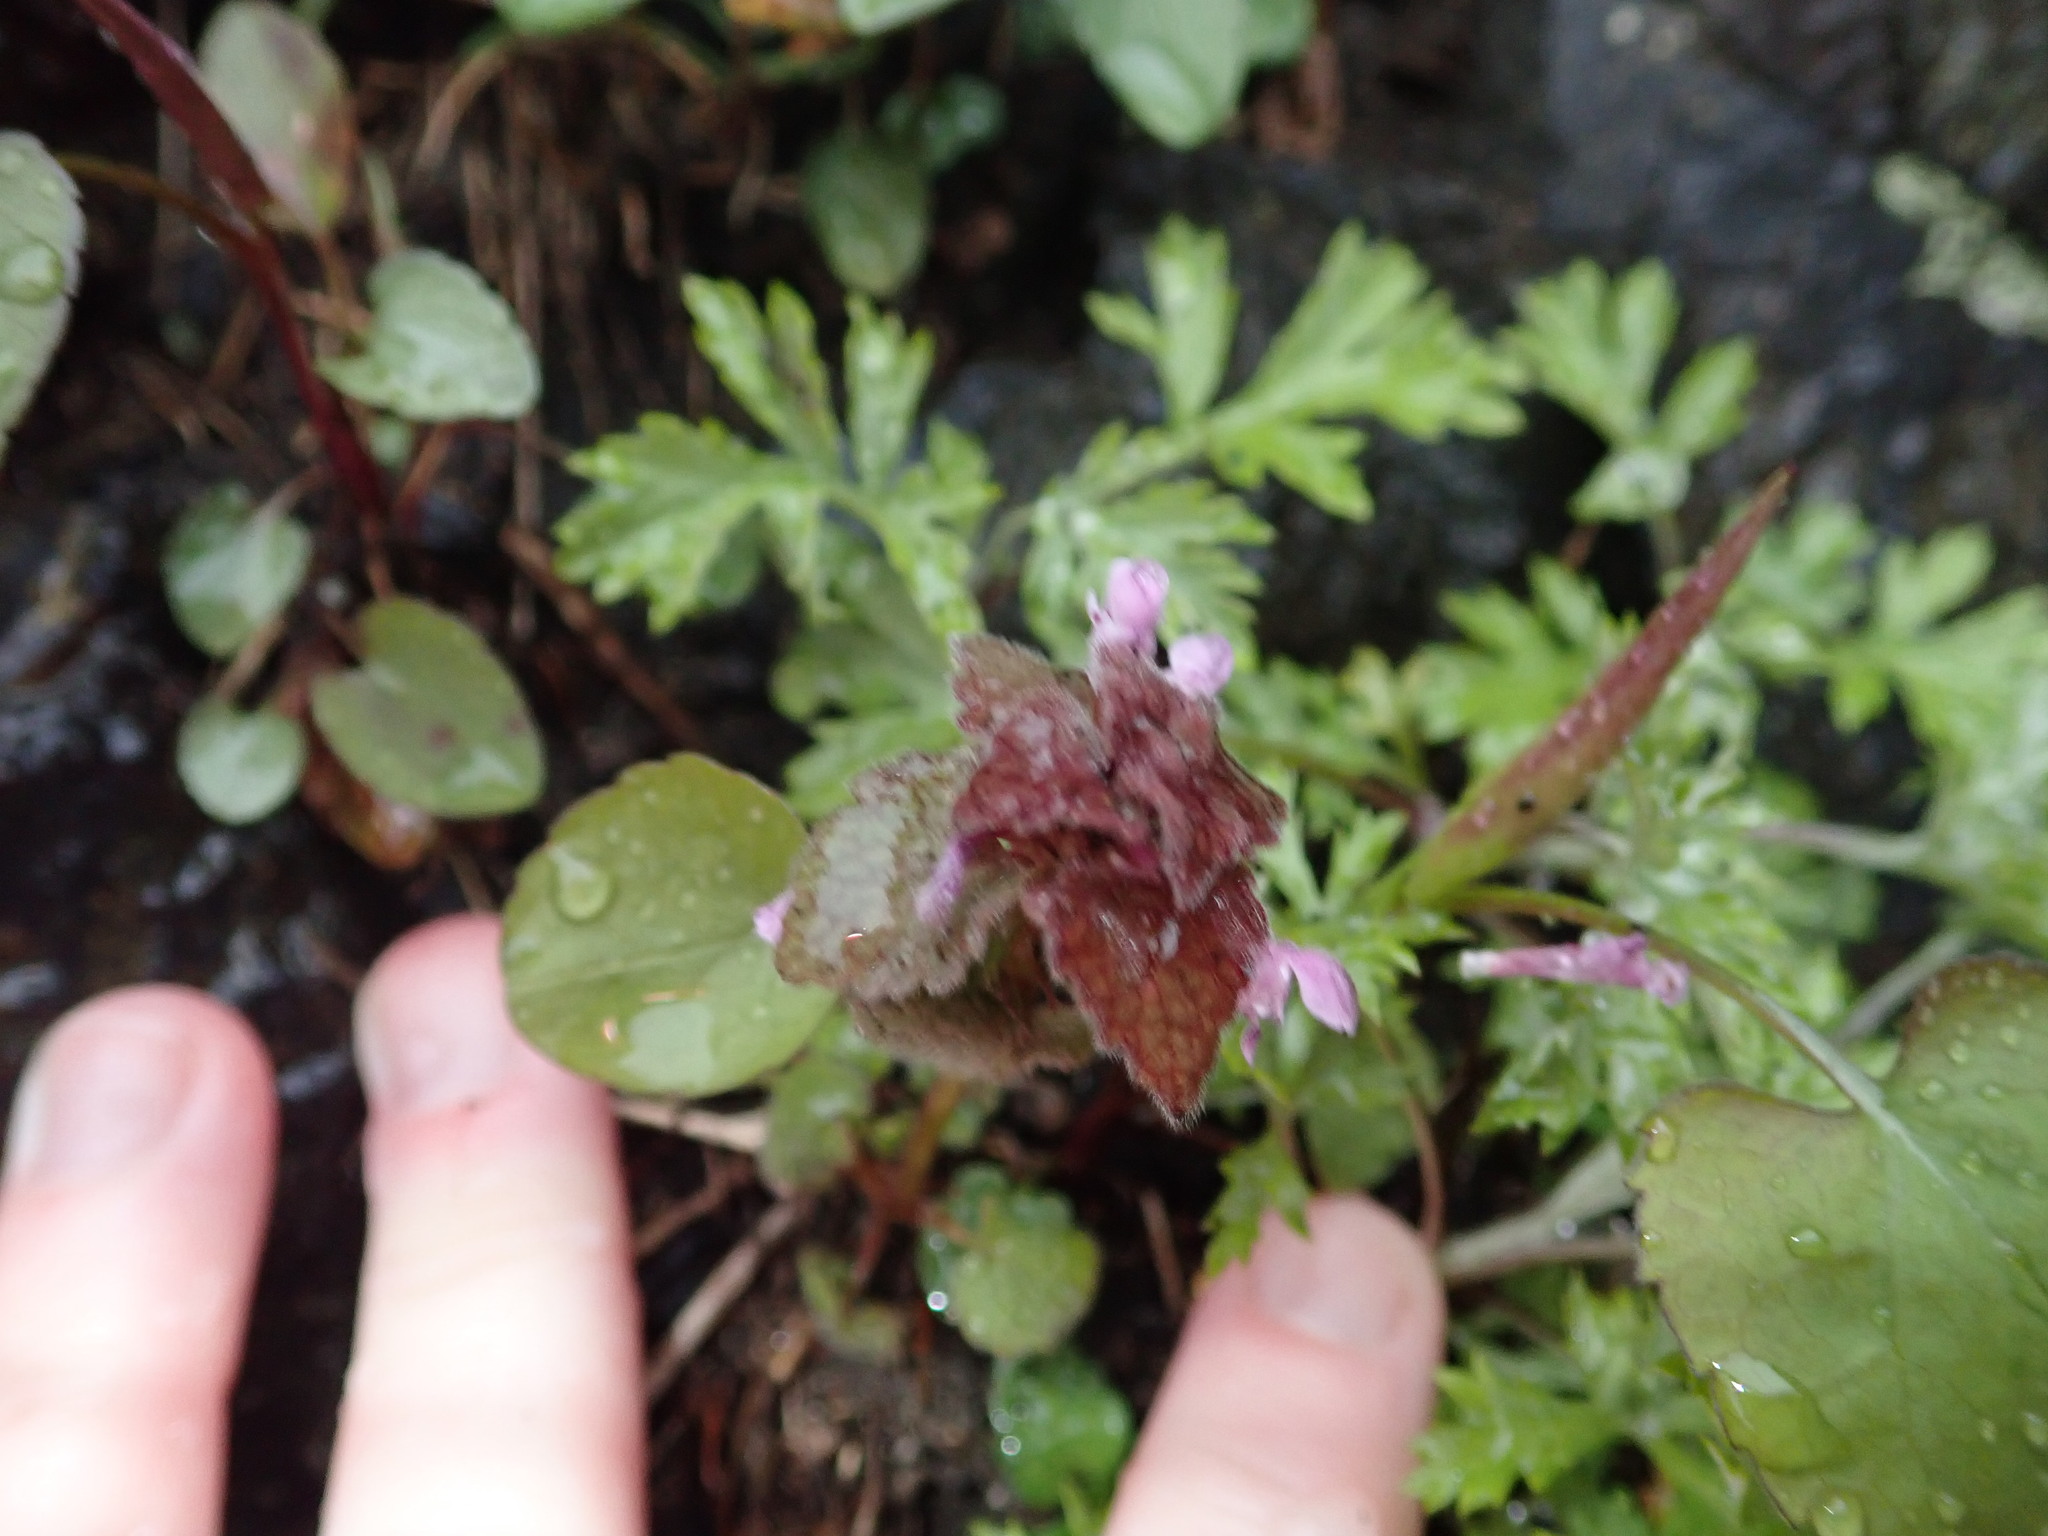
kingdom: Plantae
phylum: Tracheophyta
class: Magnoliopsida
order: Lamiales
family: Lamiaceae
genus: Lamium
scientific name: Lamium purpureum
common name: Red dead-nettle
